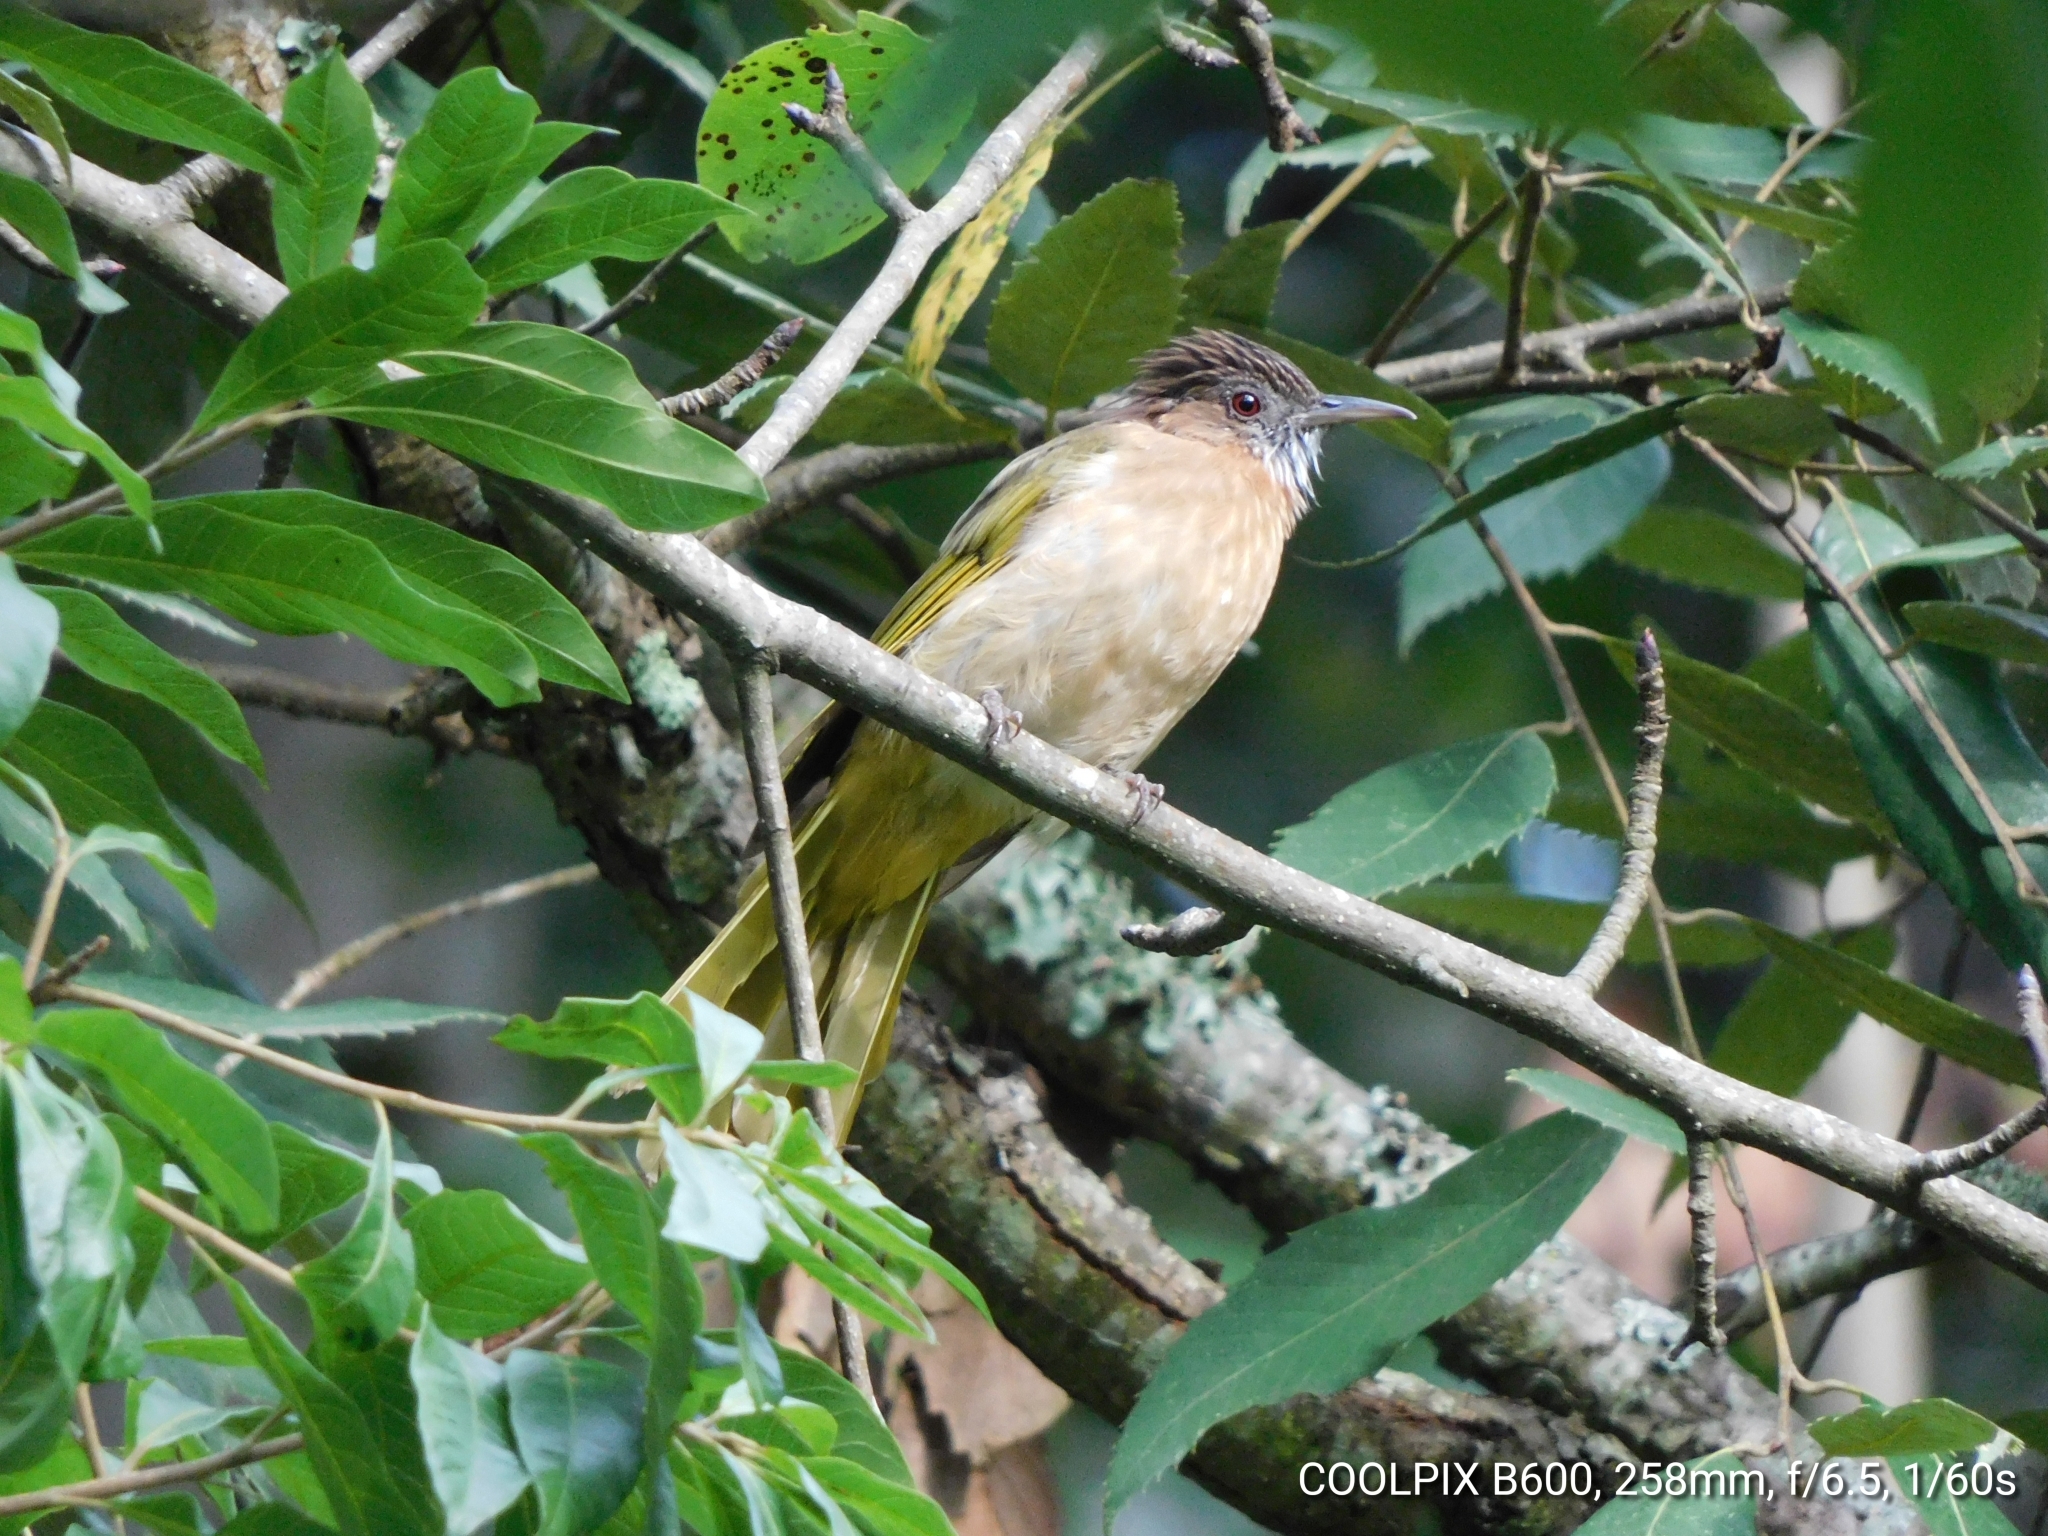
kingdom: Animalia
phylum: Chordata
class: Aves
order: Passeriformes
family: Pycnonotidae
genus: Ixos
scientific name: Ixos mcclellandii
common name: Mountain bulbul
